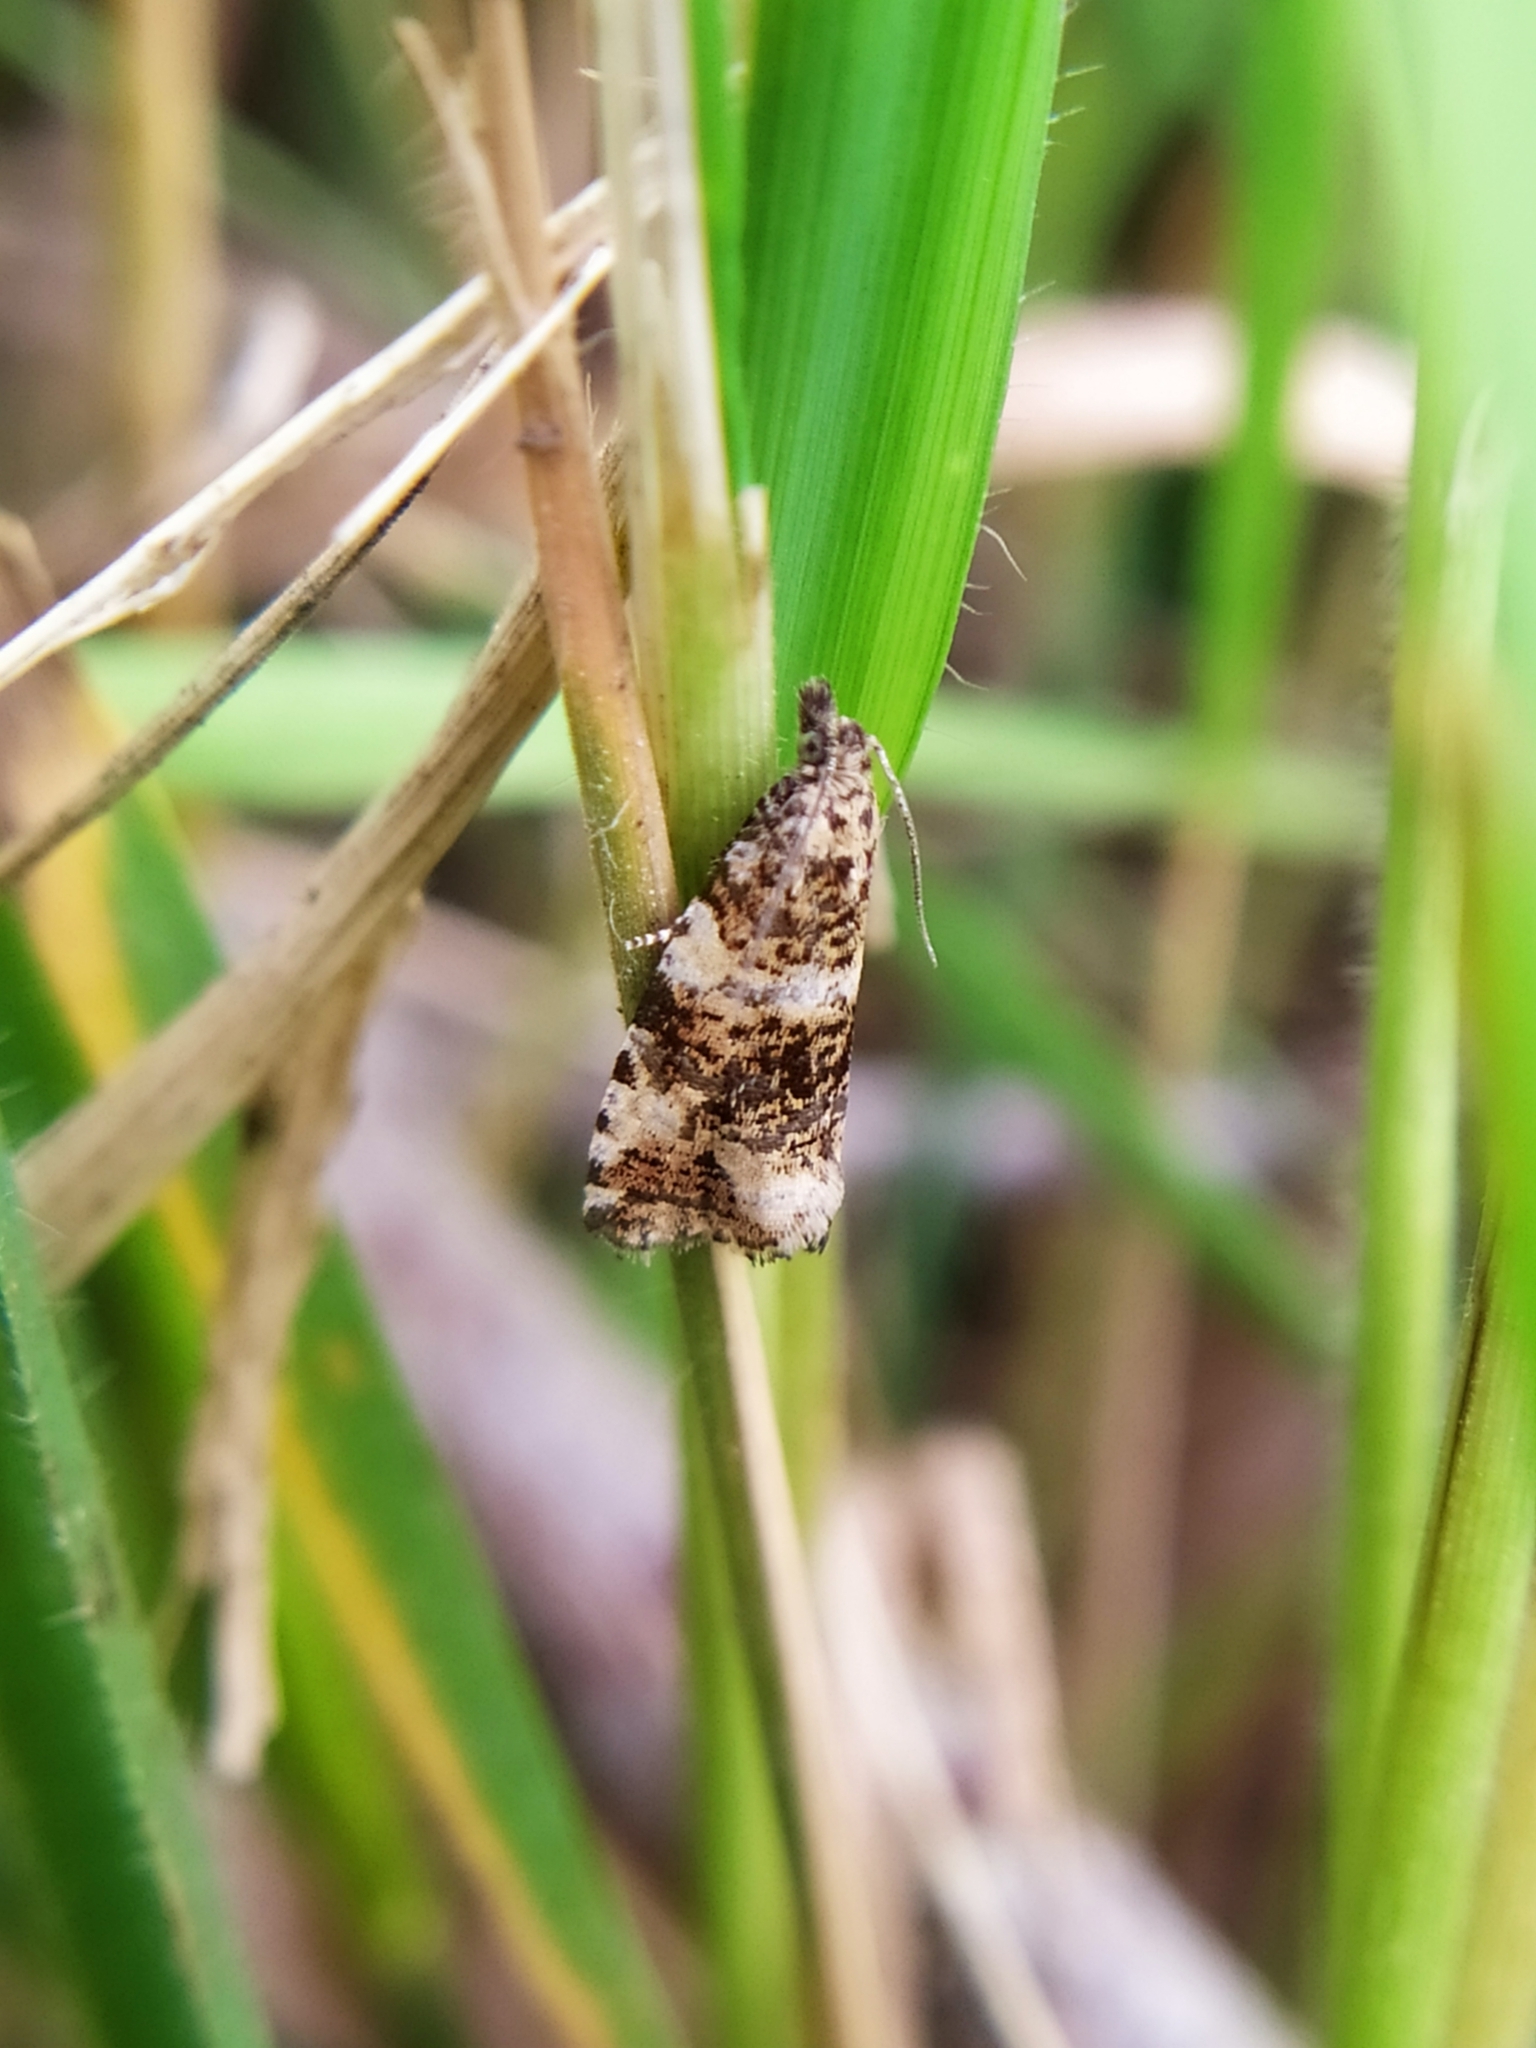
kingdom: Animalia
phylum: Arthropoda
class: Insecta
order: Lepidoptera
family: Tortricidae
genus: Olethreutes
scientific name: Olethreutes micana
